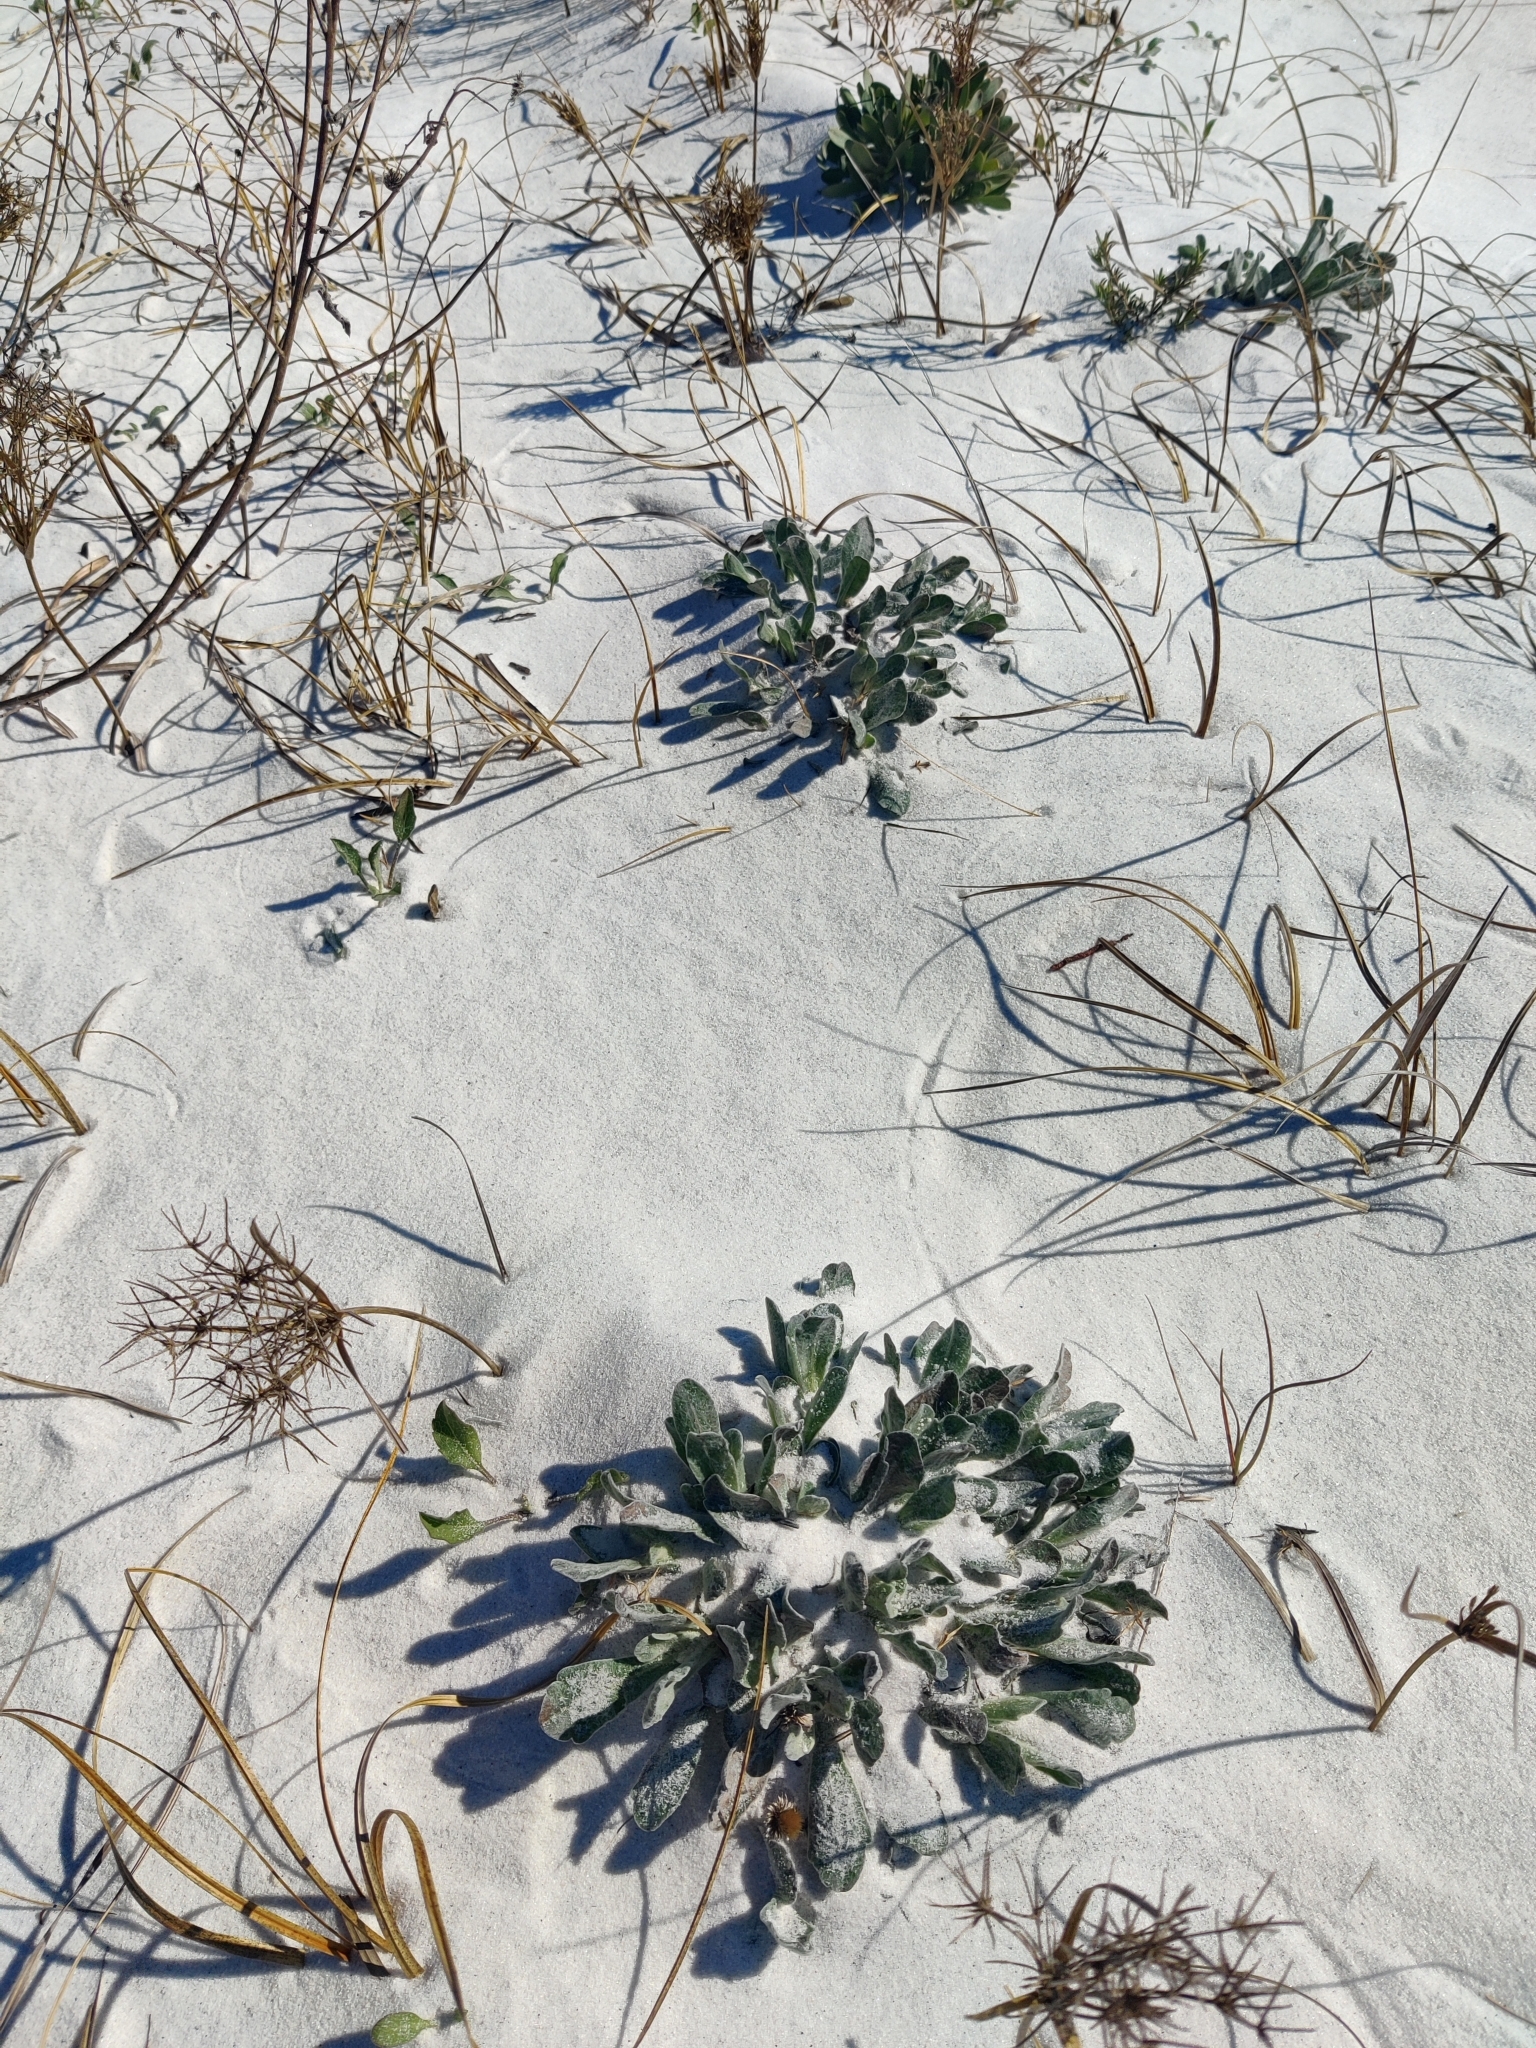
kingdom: Plantae
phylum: Tracheophyta
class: Magnoliopsida
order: Asterales
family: Asteraceae
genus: Chrysopsis
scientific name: Chrysopsis godfreyi
